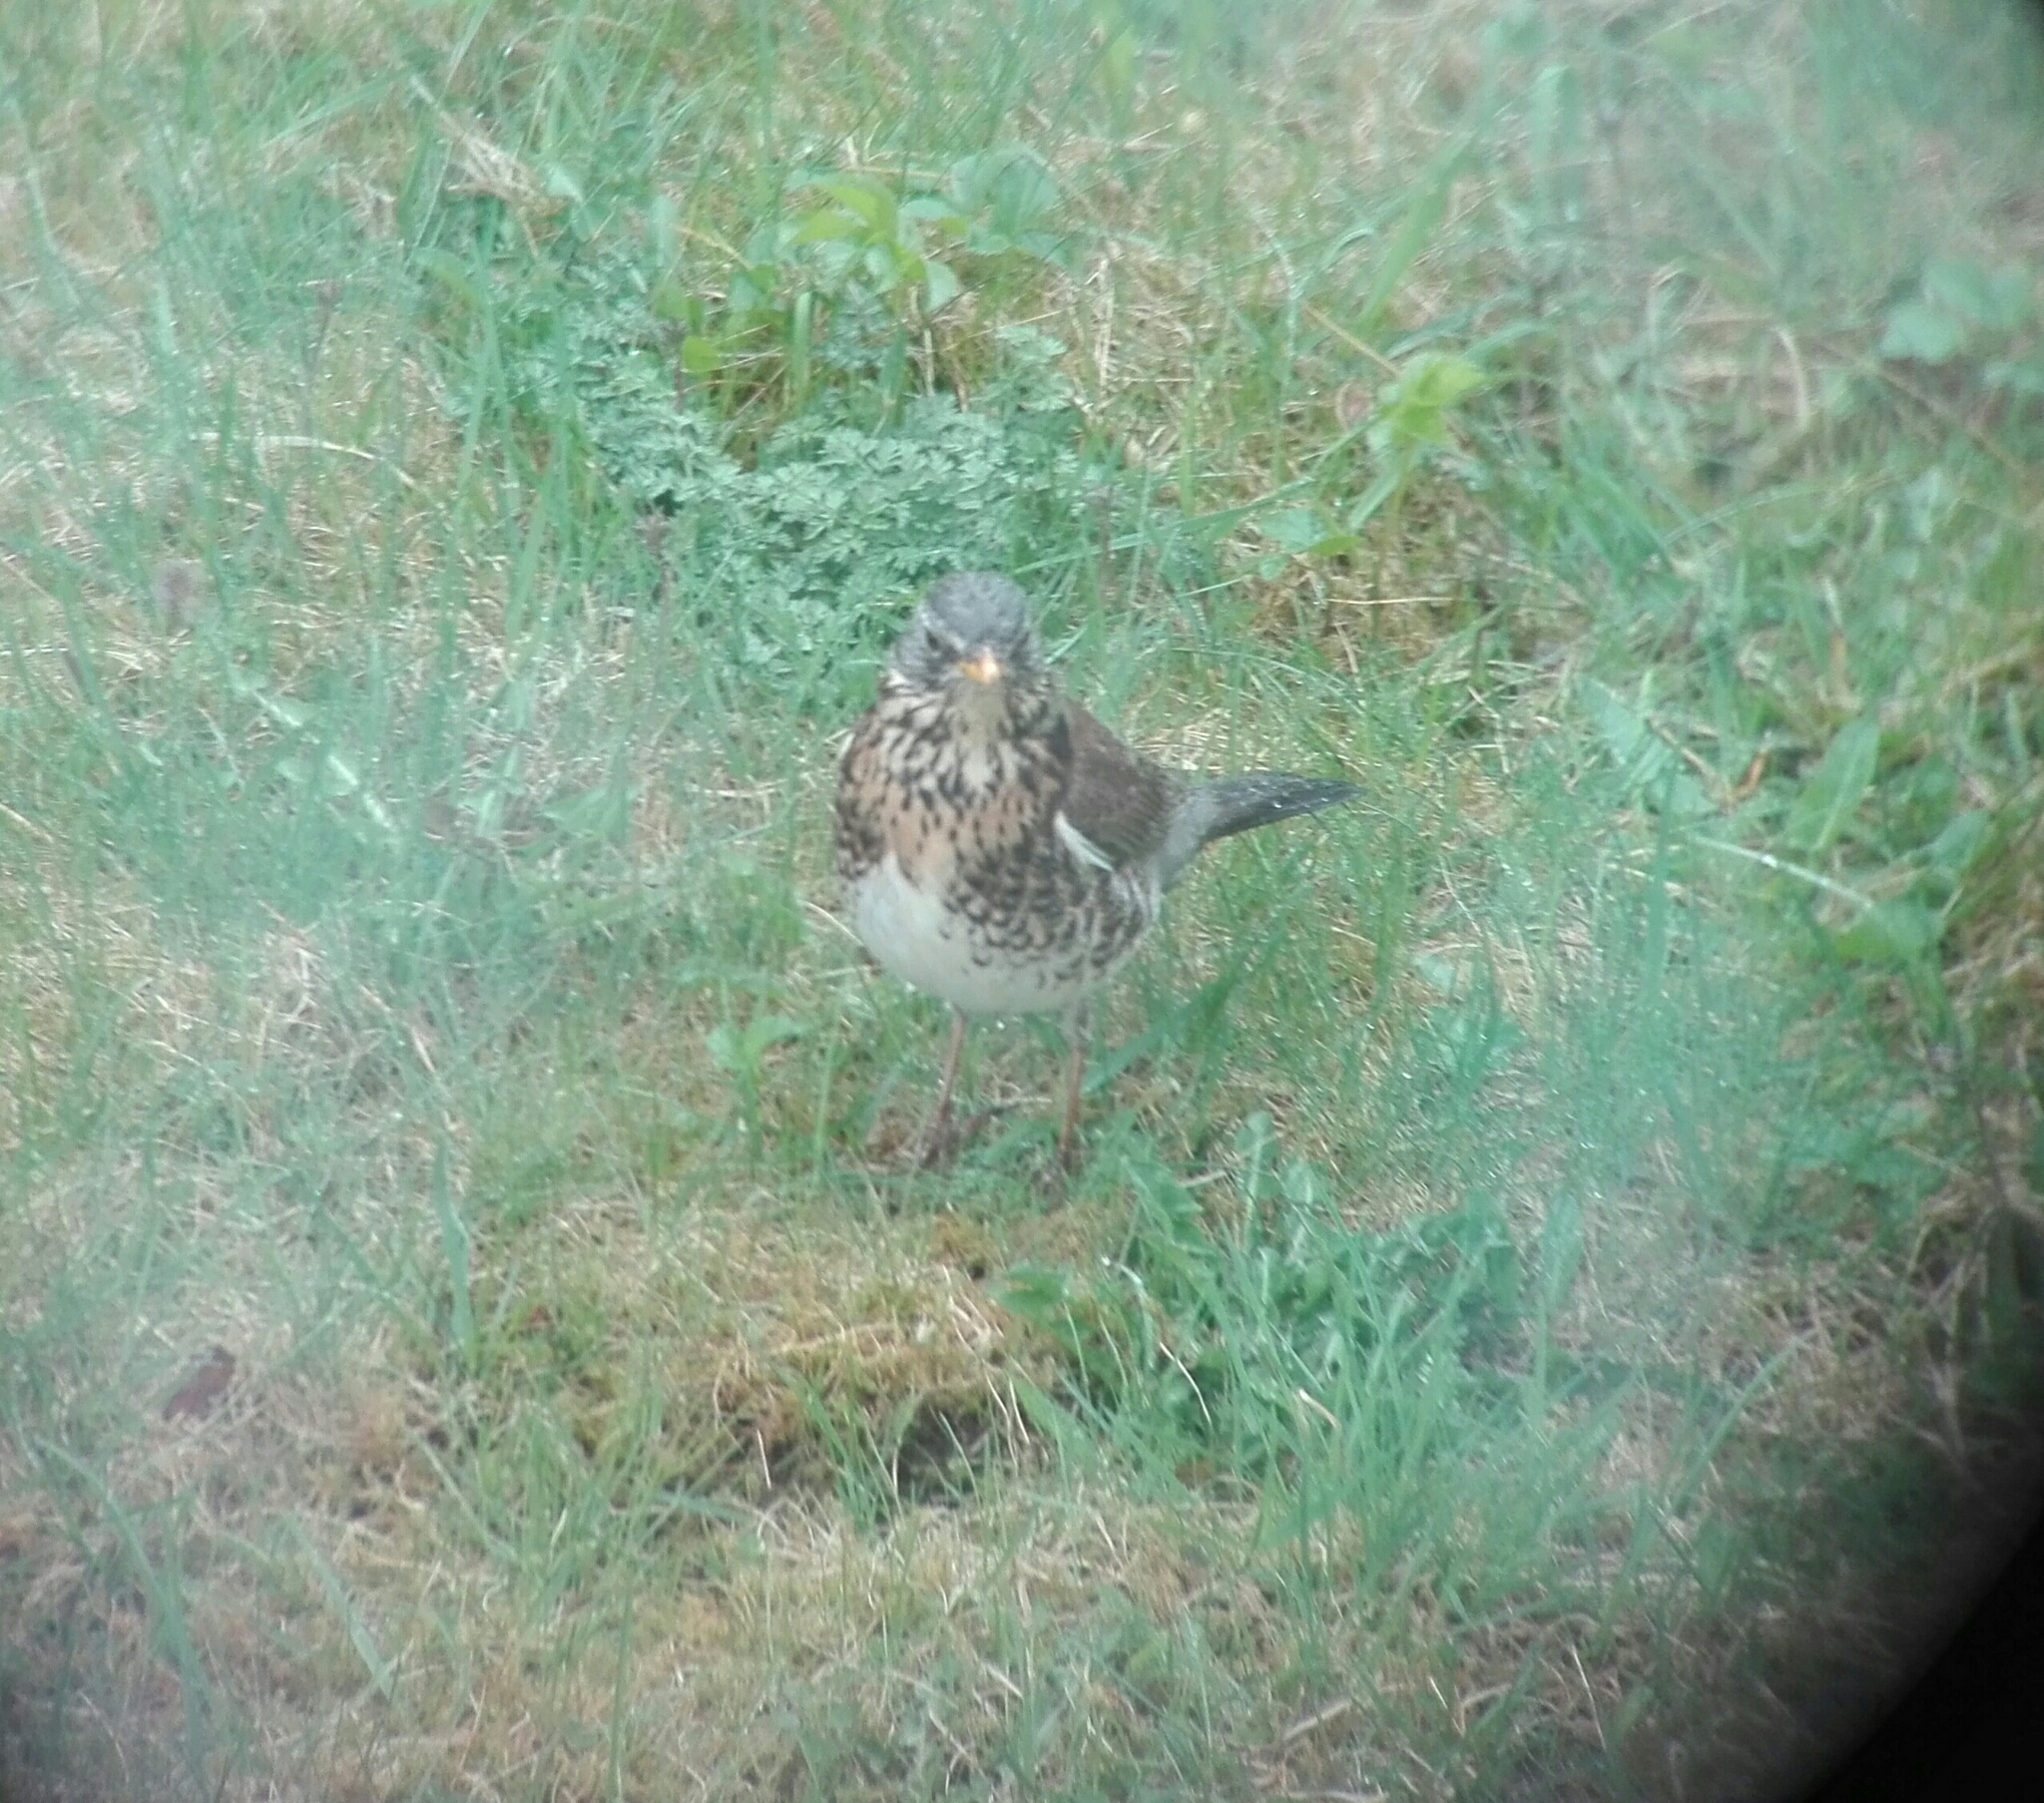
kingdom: Animalia
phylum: Chordata
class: Aves
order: Passeriformes
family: Turdidae
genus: Turdus
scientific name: Turdus pilaris
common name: Fieldfare
